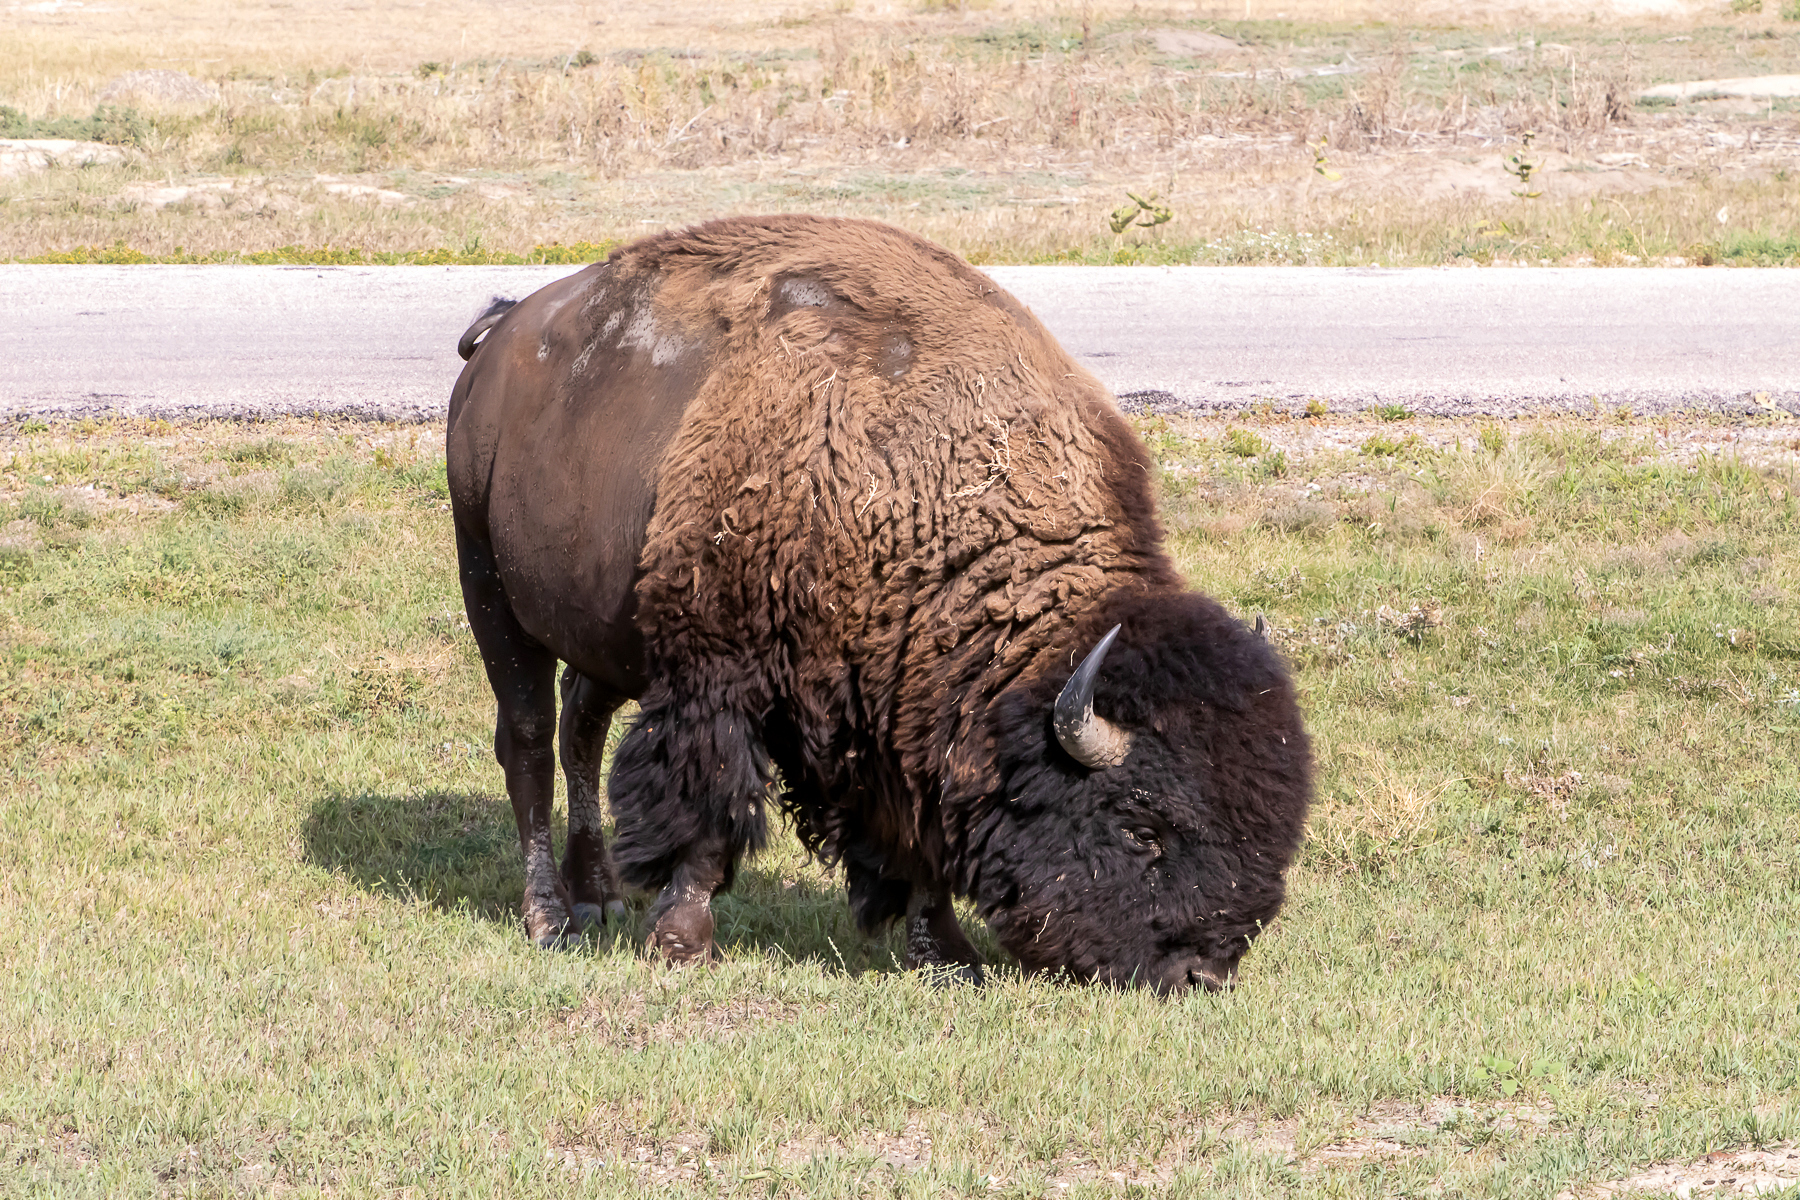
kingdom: Animalia
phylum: Chordata
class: Mammalia
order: Artiodactyla
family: Bovidae
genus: Bison
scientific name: Bison bison
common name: American bison
